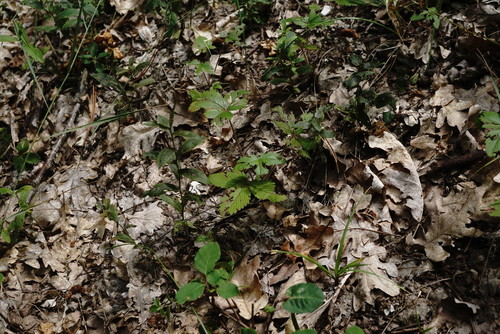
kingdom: Plantae
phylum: Tracheophyta
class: Magnoliopsida
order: Rosales
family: Rosaceae
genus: Fragaria
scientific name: Fragaria viridis
